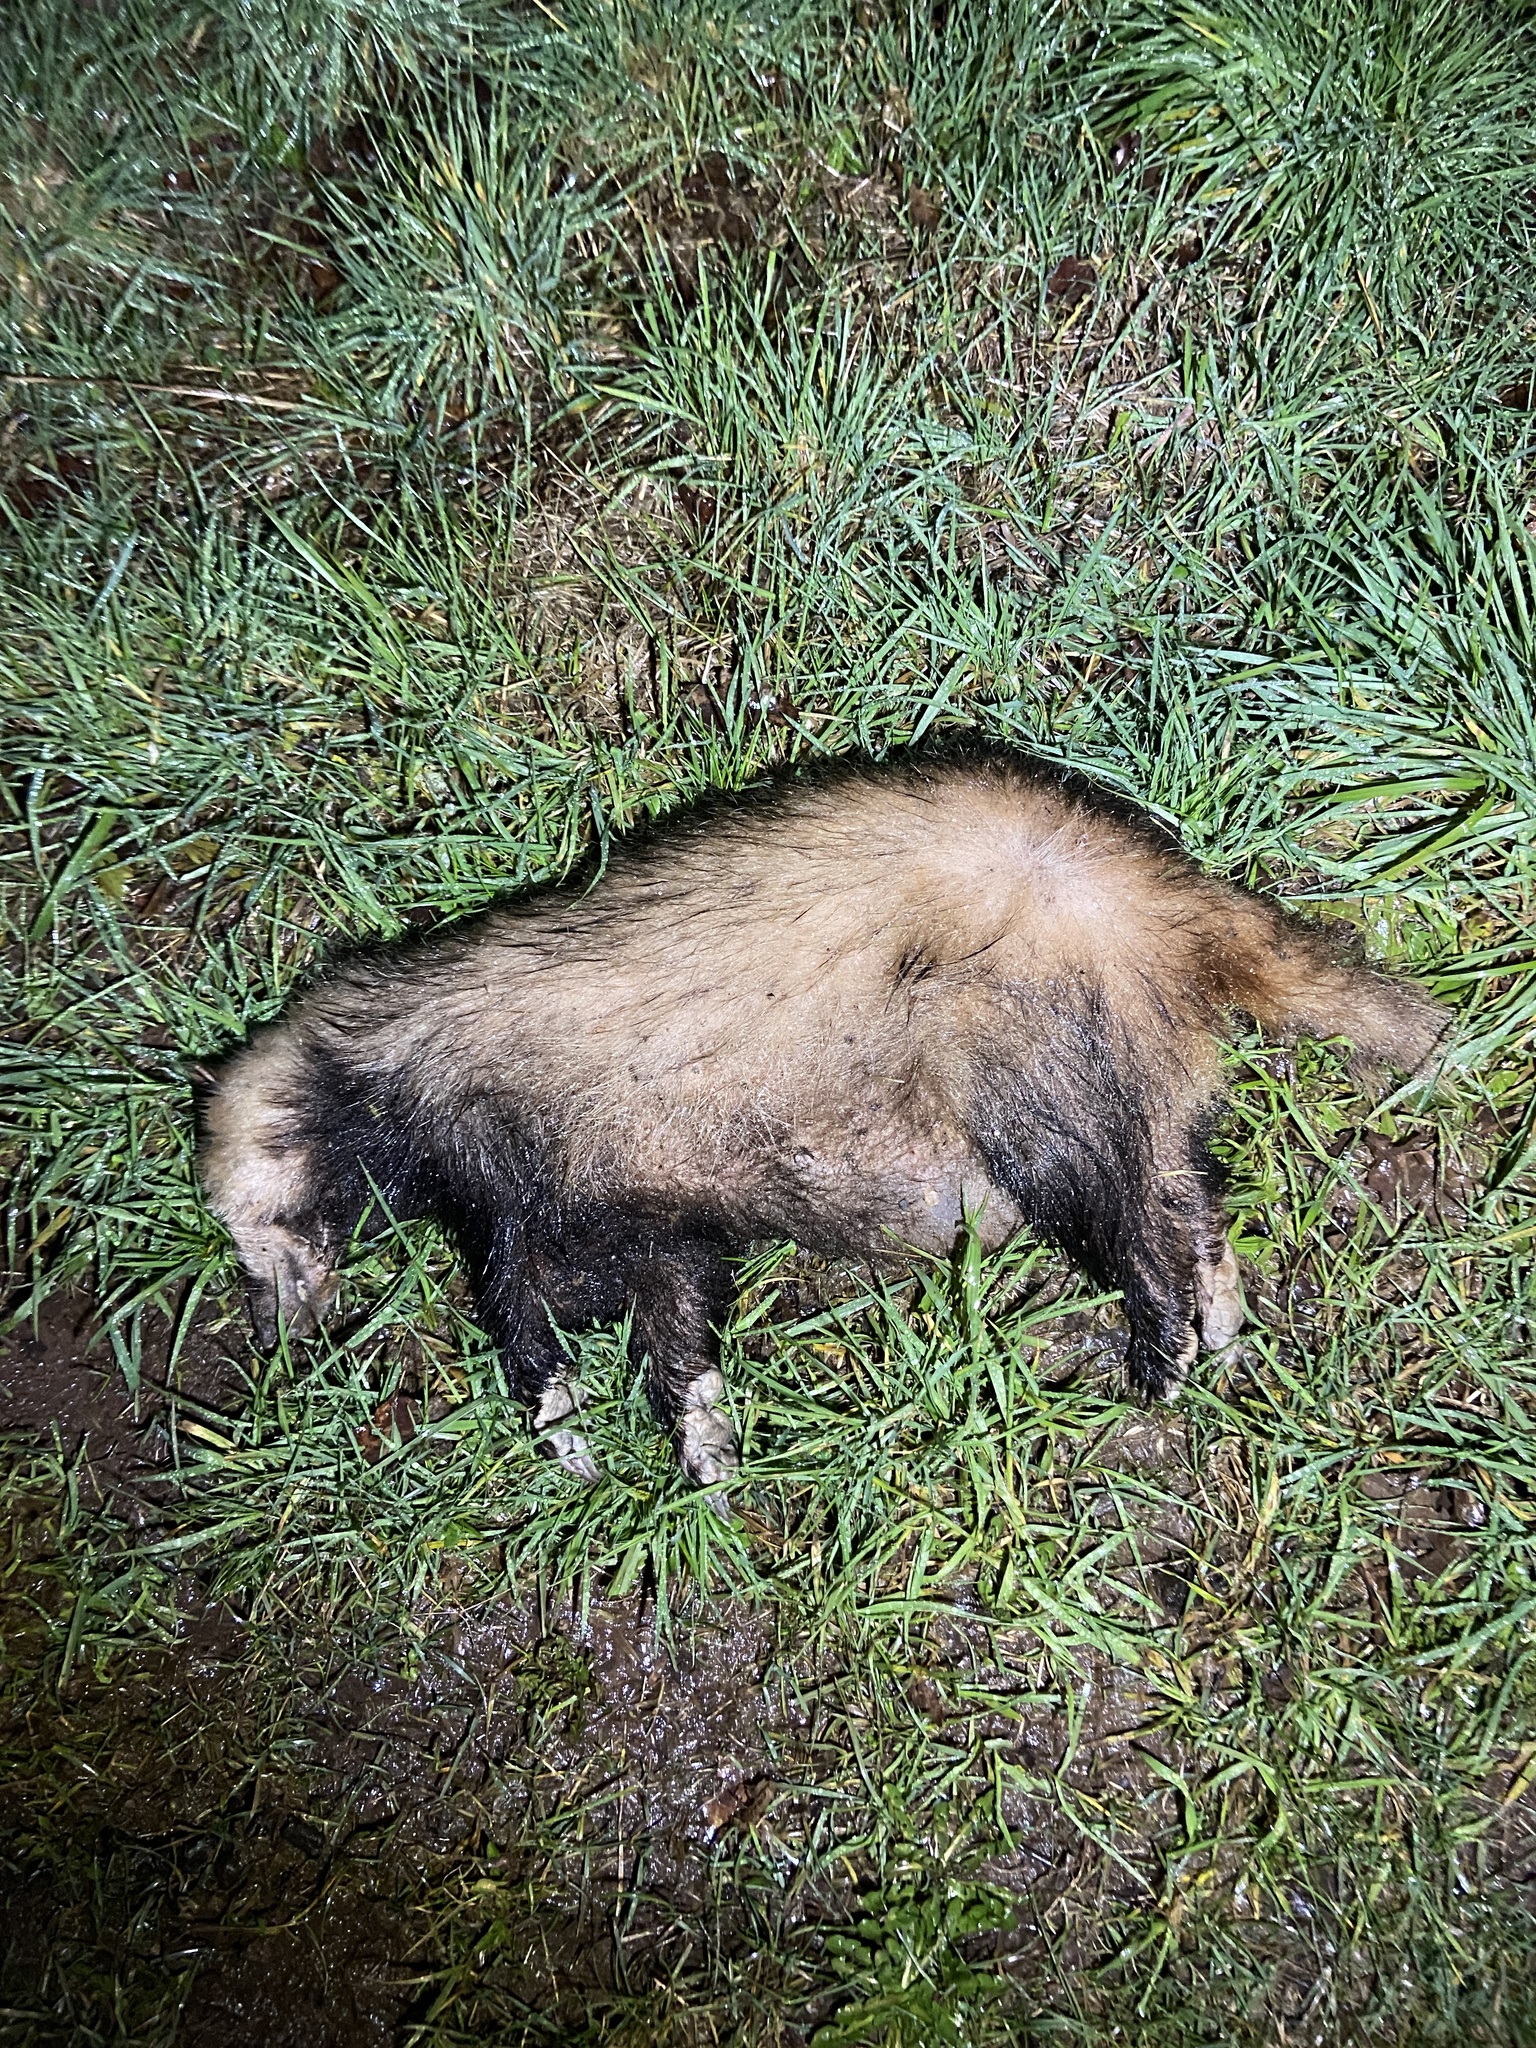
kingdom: Animalia
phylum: Chordata
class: Mammalia
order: Carnivora
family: Mustelidae
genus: Meles
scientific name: Meles meles
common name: Eurasian badger
